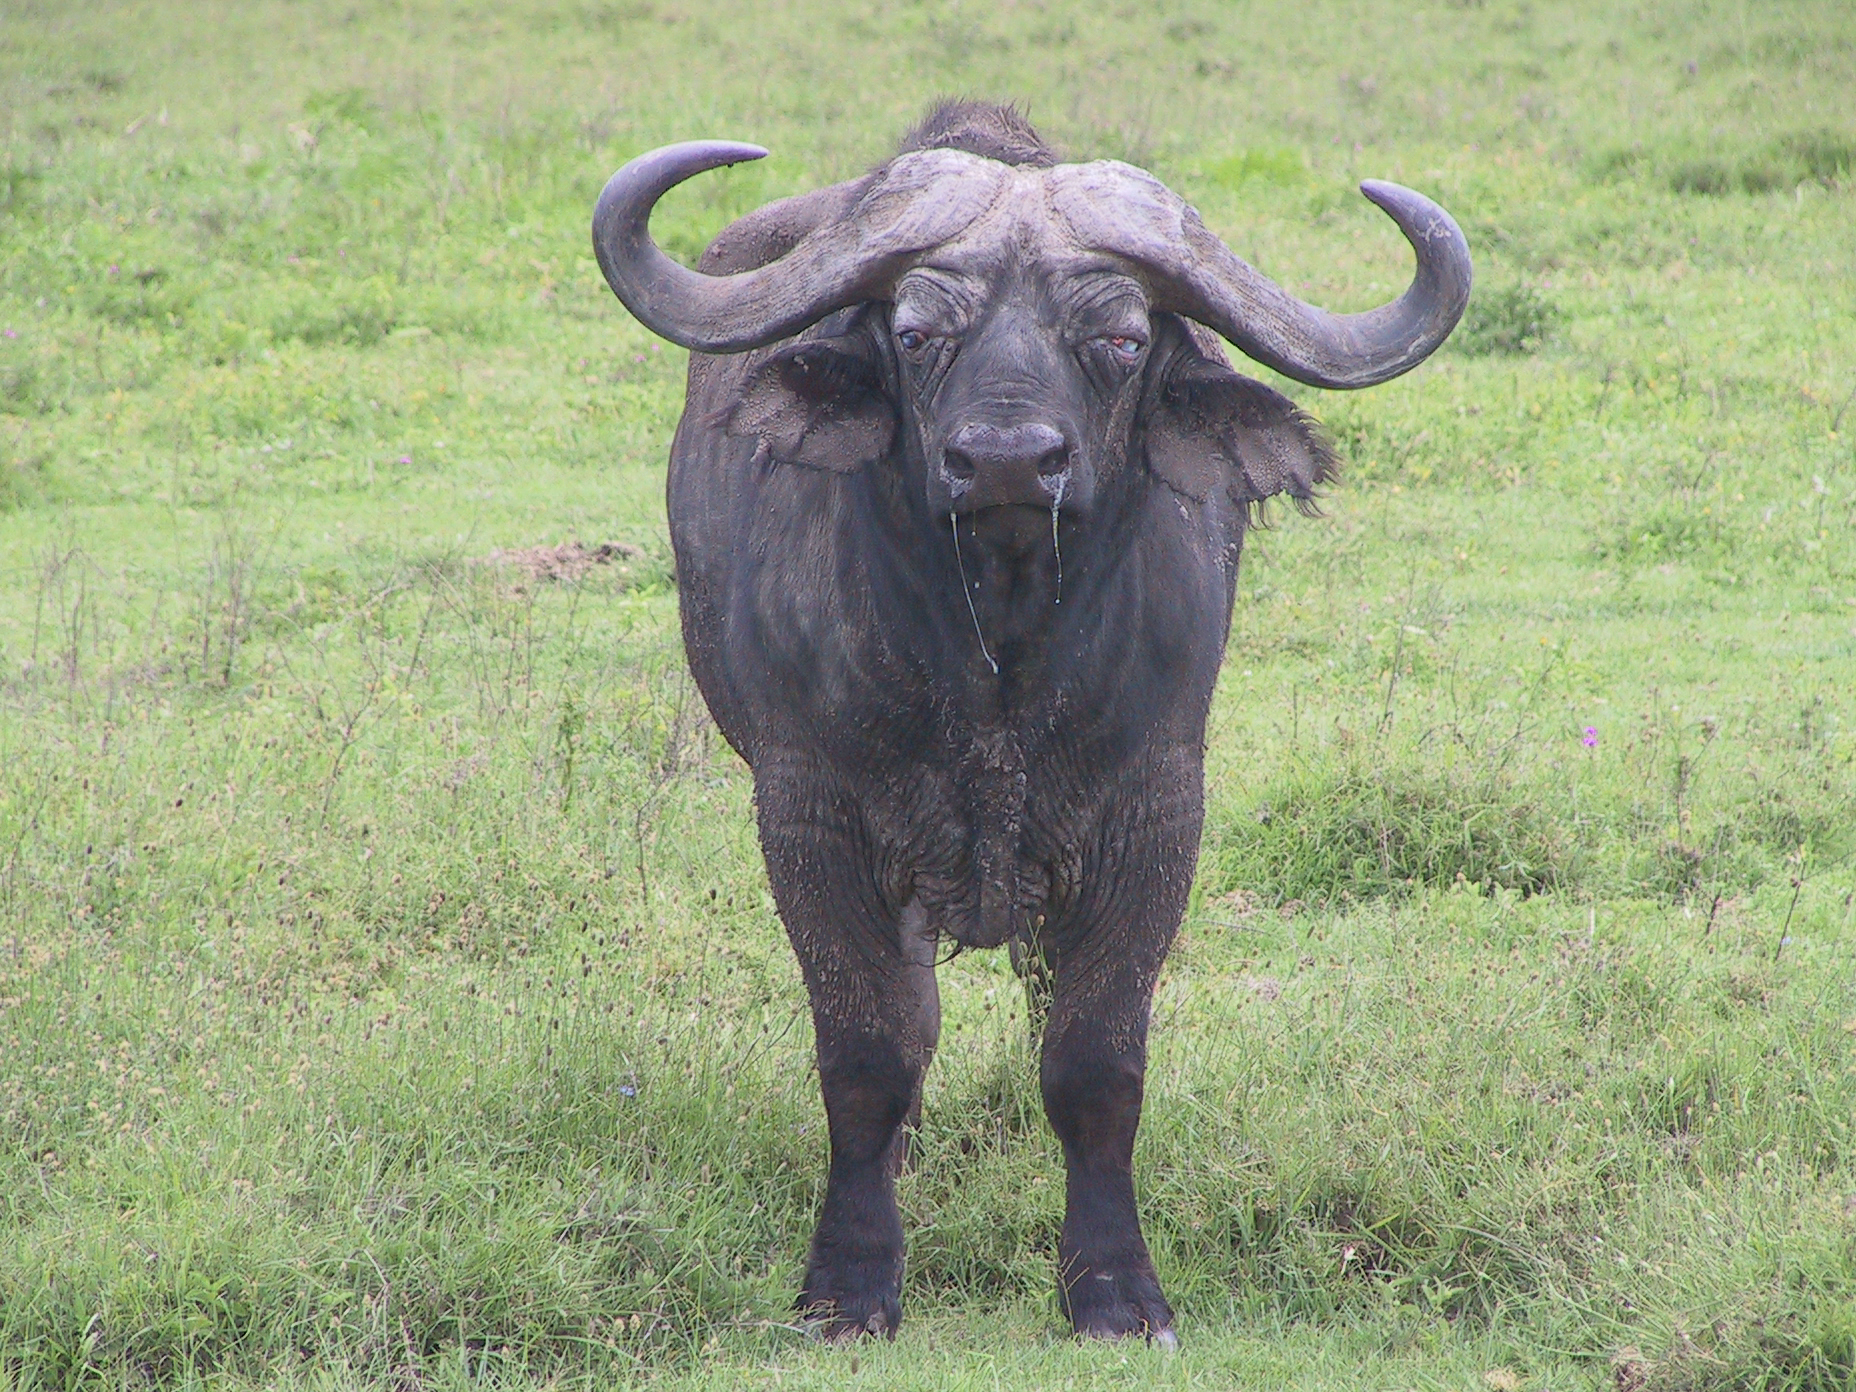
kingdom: Animalia
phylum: Chordata
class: Mammalia
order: Artiodactyla
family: Bovidae
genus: Syncerus
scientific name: Syncerus caffer
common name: African buffalo
